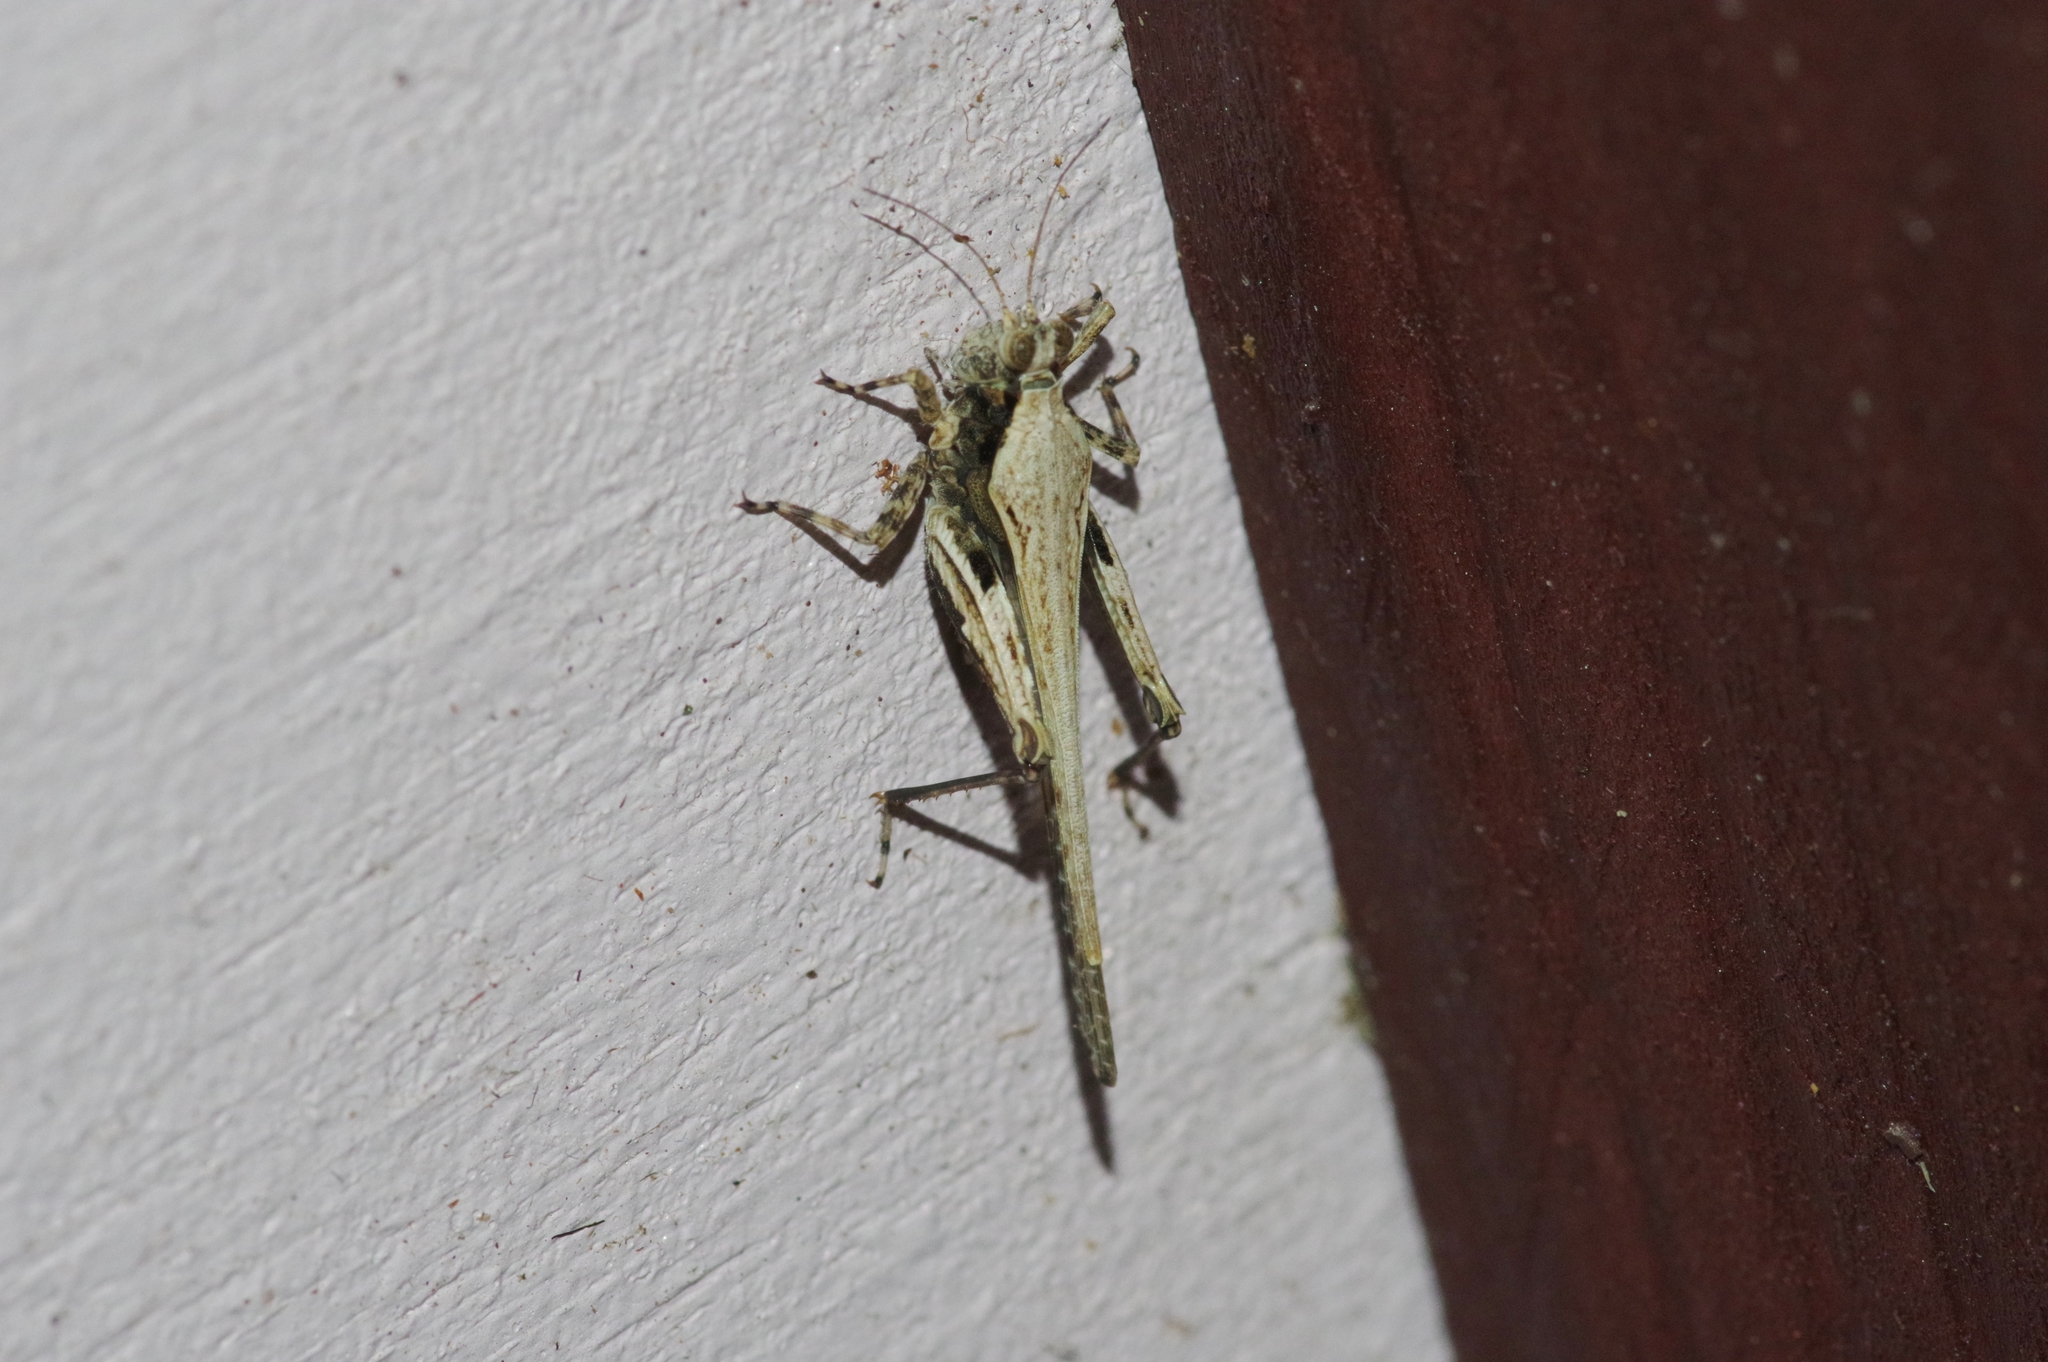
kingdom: Animalia
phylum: Arthropoda
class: Insecta
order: Orthoptera
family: Tetrigidae
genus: Euparatettix
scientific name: Euparatettix tricarinatus
